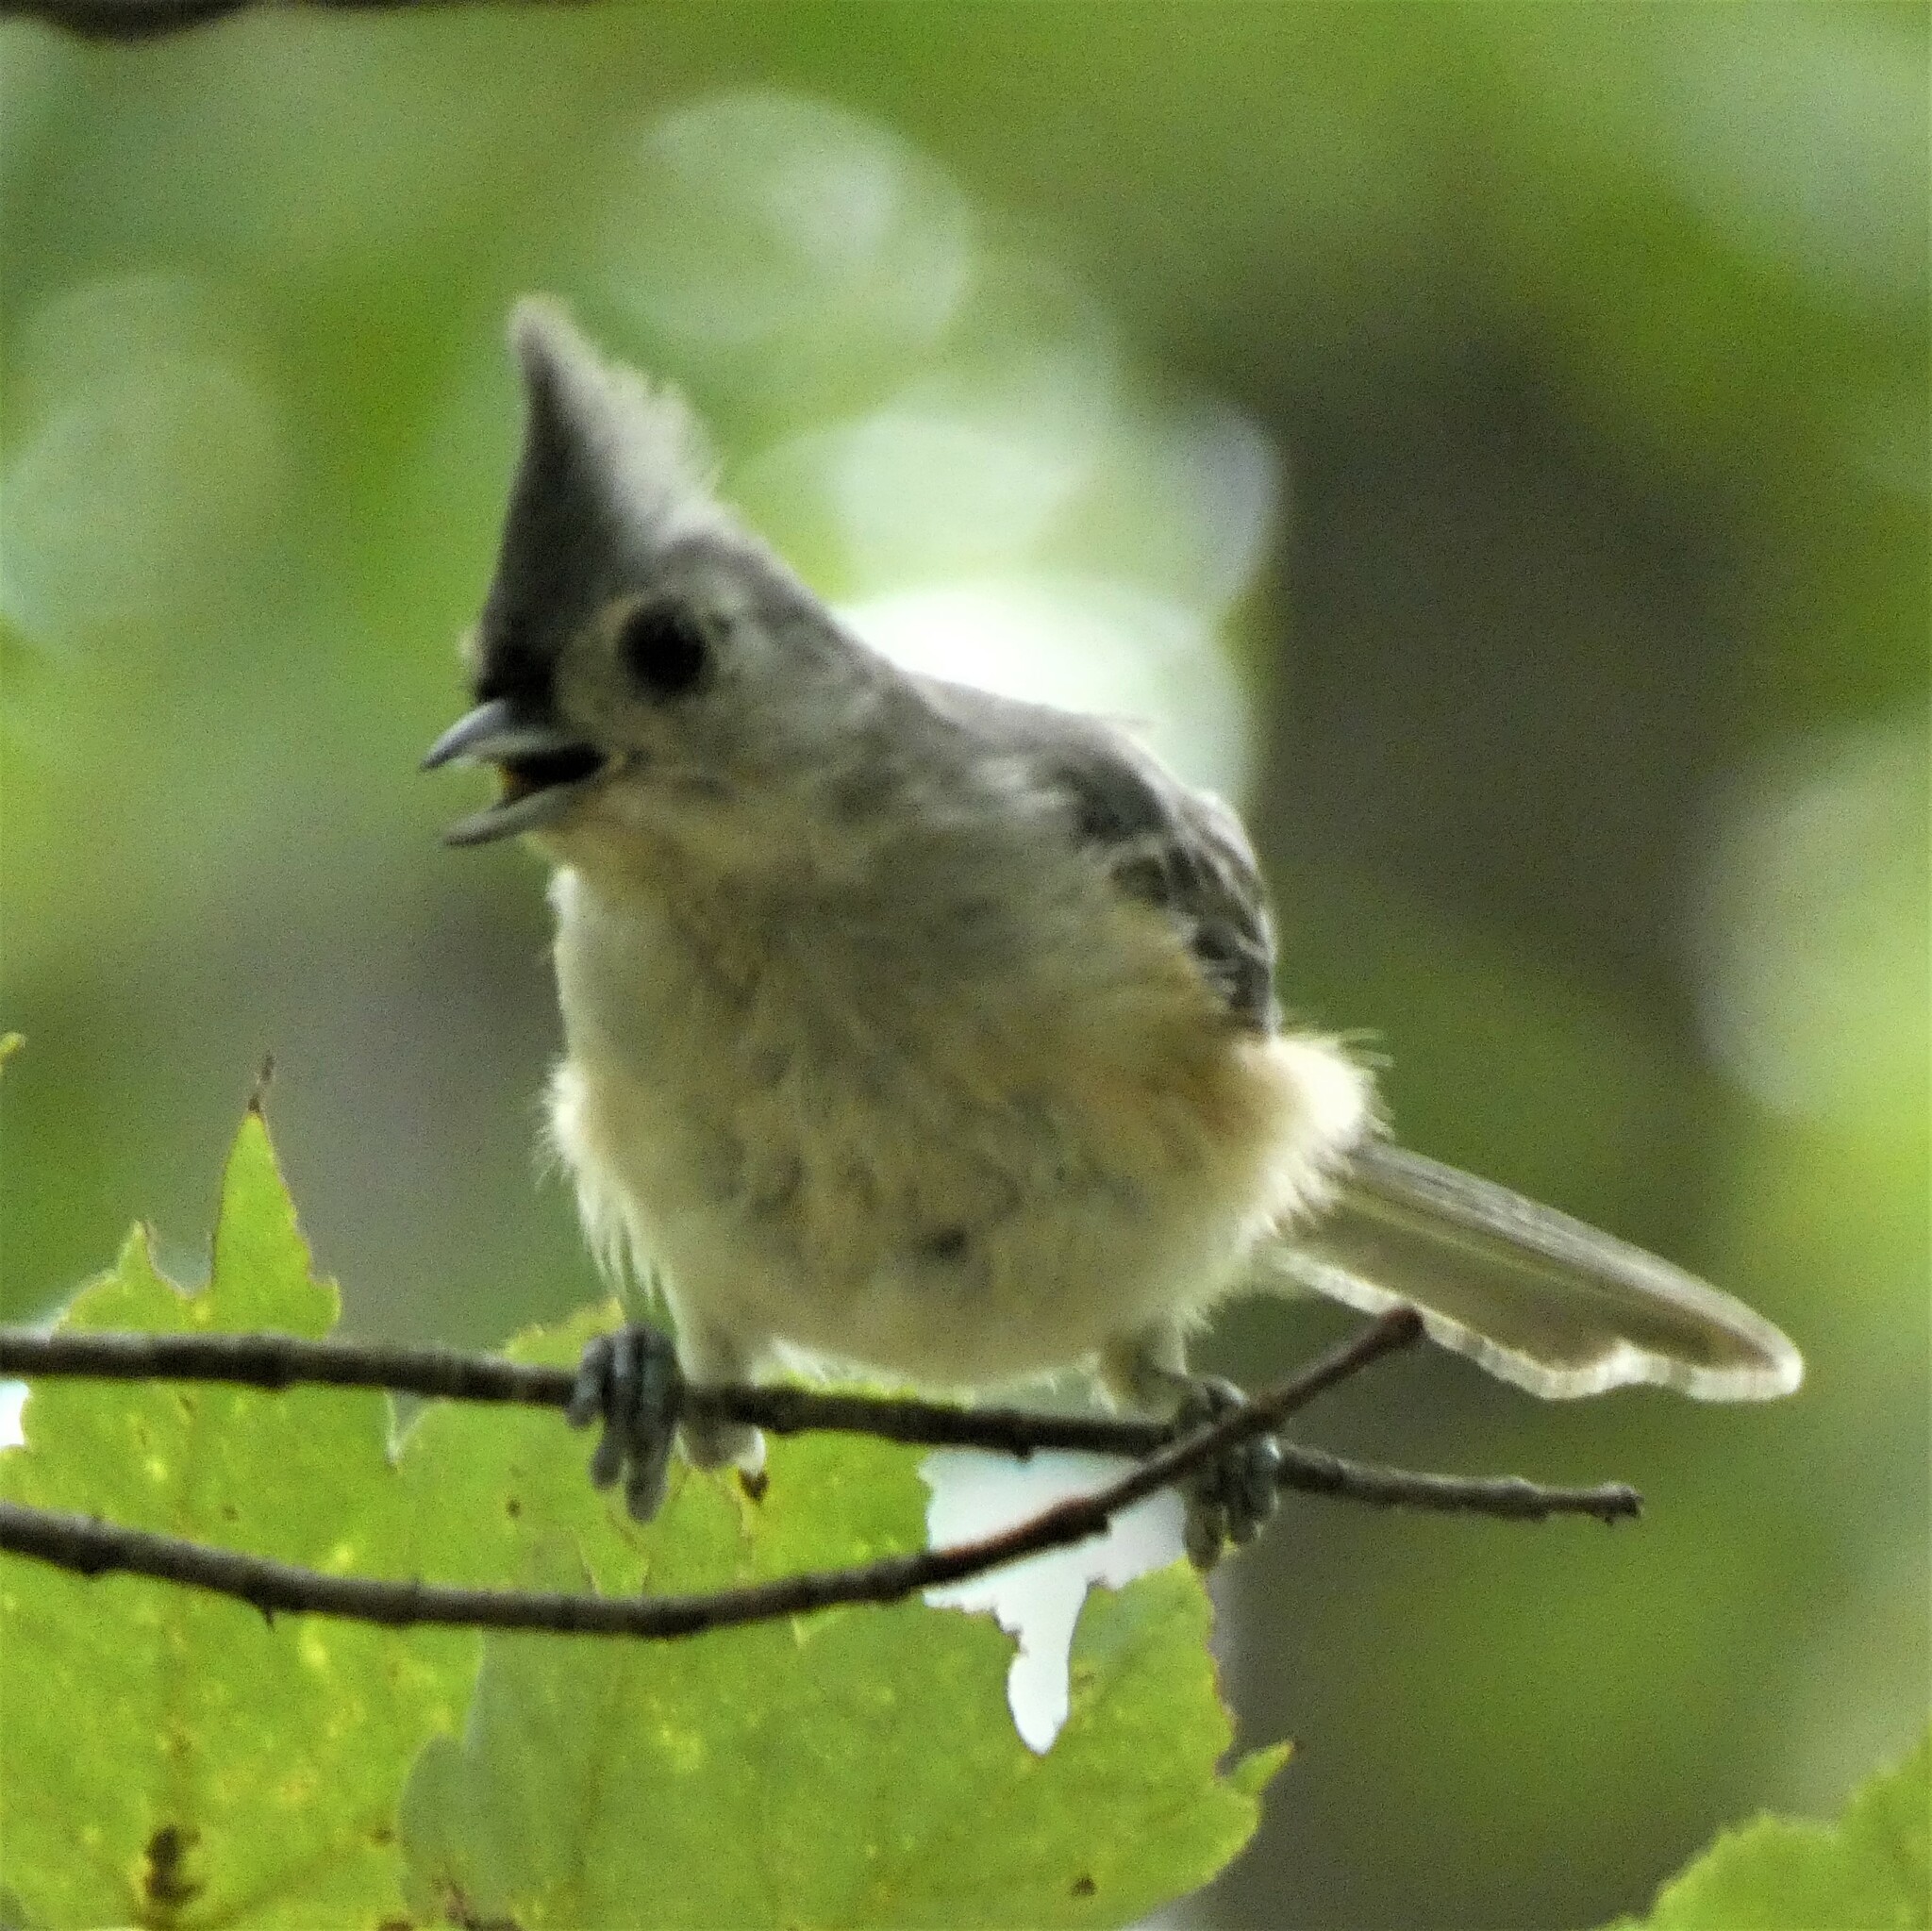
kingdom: Animalia
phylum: Chordata
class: Aves
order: Passeriformes
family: Paridae
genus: Baeolophus
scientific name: Baeolophus bicolor
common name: Tufted titmouse
